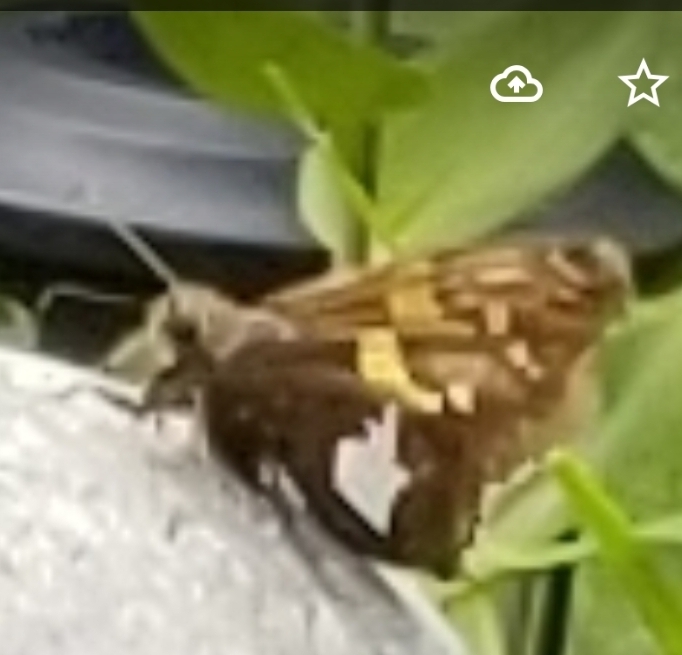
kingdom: Animalia
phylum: Arthropoda
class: Insecta
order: Lepidoptera
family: Hesperiidae
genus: Epargyreus
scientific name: Epargyreus clarus
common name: Silver-spotted skipper
